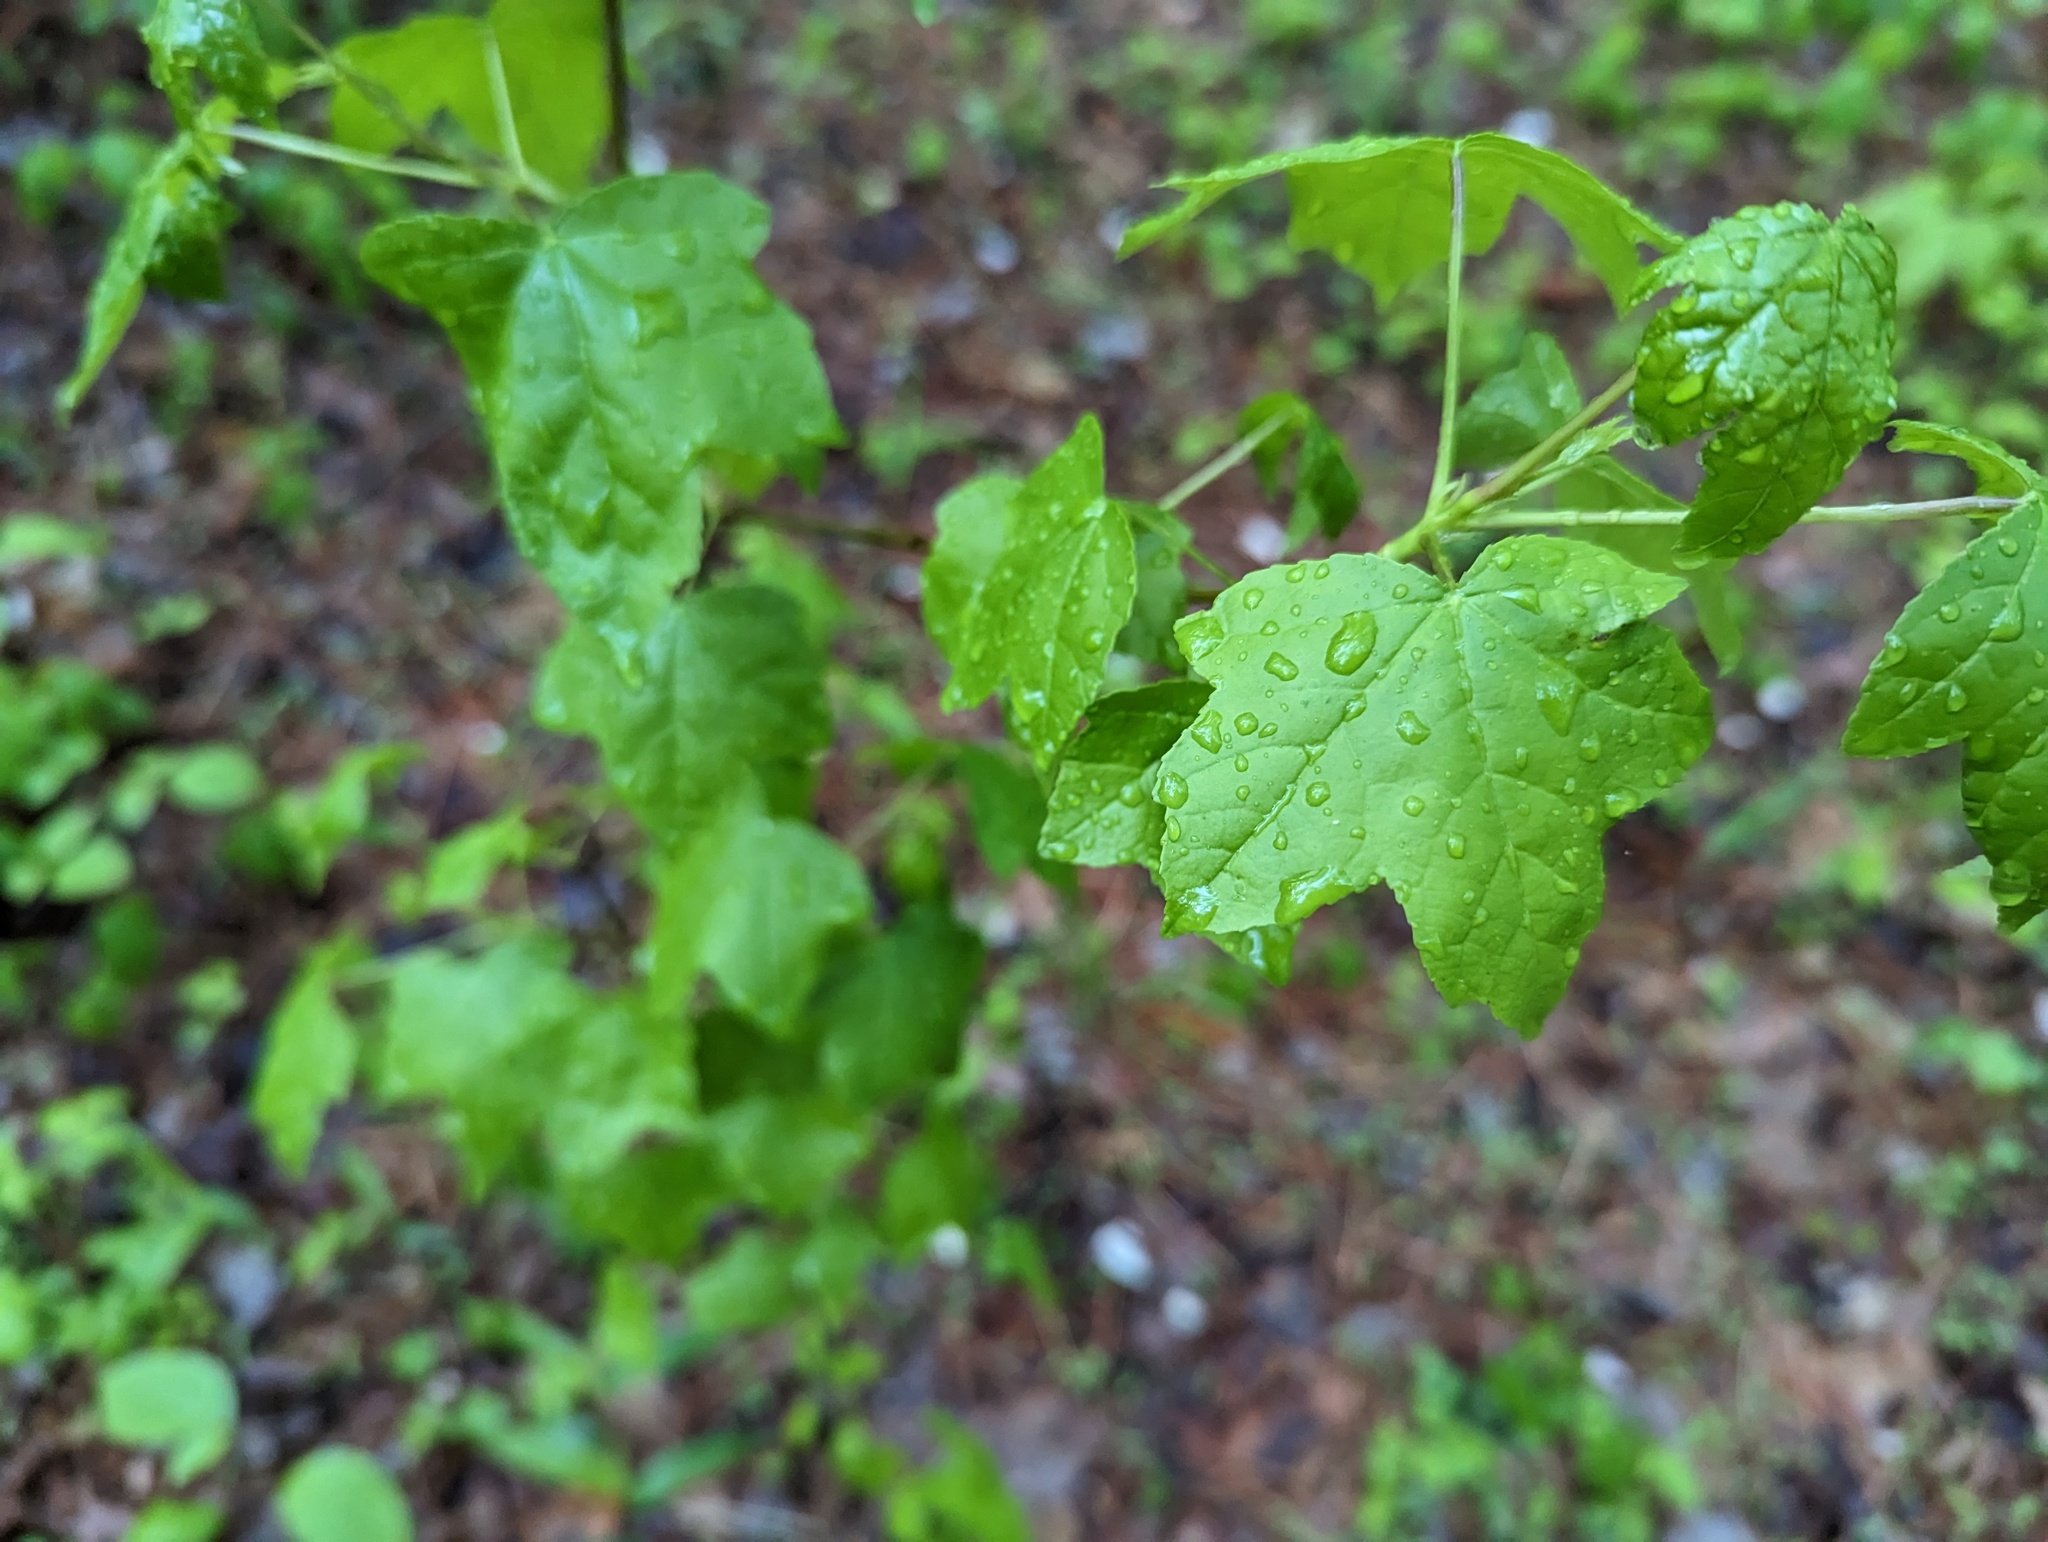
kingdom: Plantae
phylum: Tracheophyta
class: Magnoliopsida
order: Saxifragales
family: Altingiaceae
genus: Liquidambar
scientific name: Liquidambar styraciflua
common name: Sweet gum
